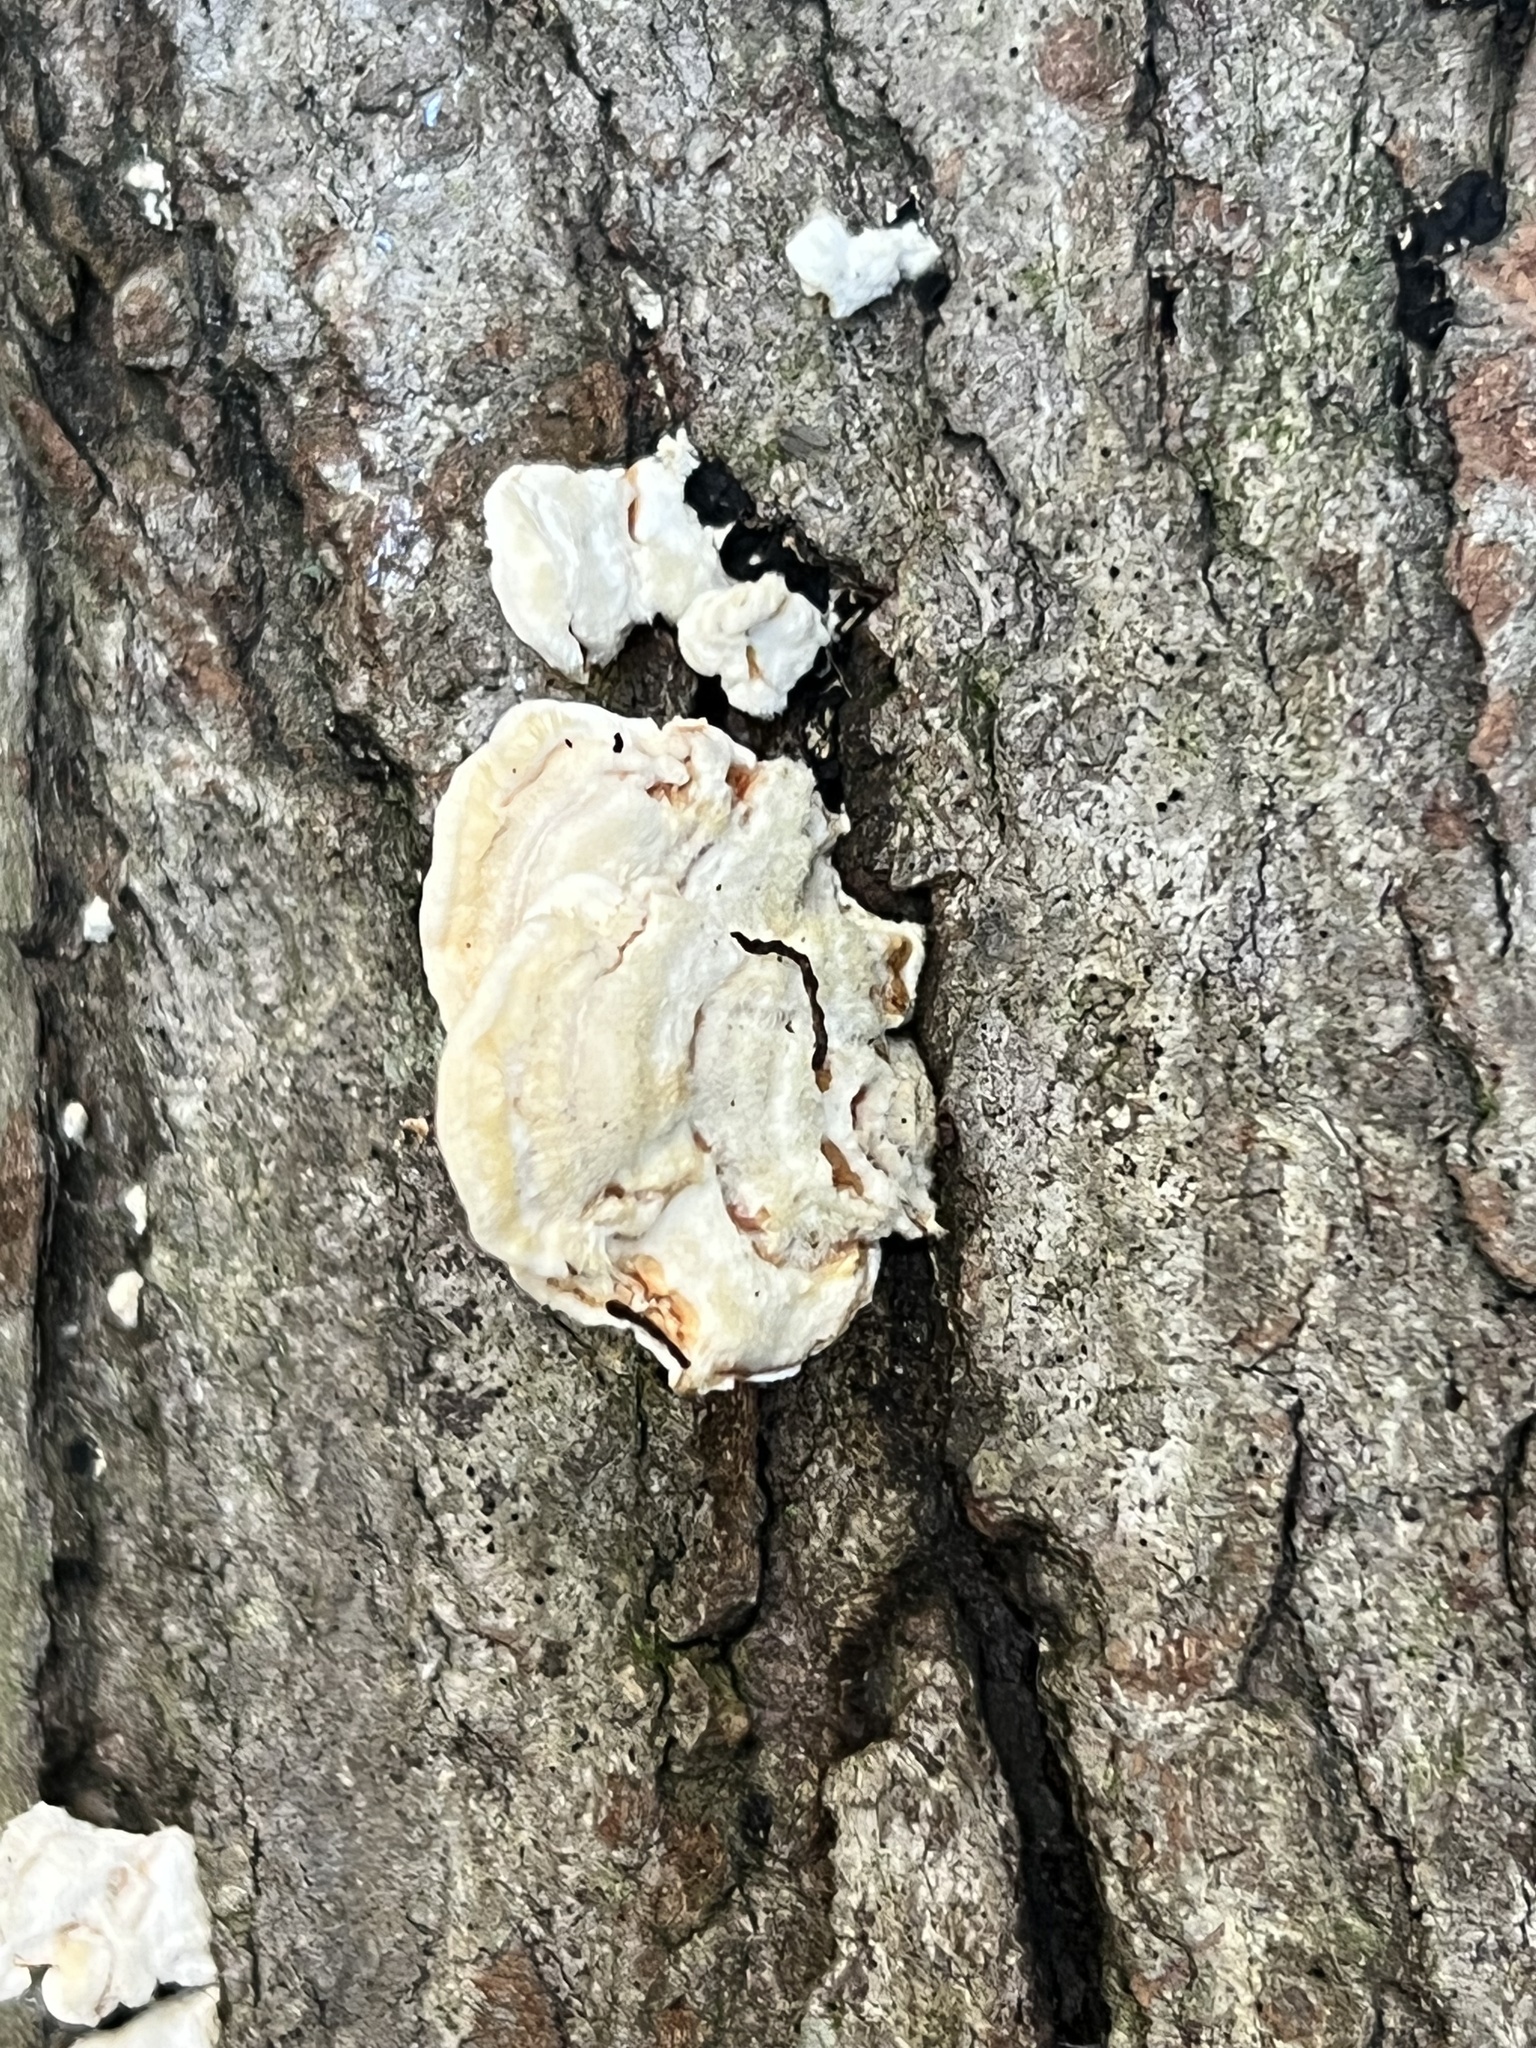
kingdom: Fungi
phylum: Basidiomycota
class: Agaricomycetes
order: Polyporales
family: Steccherinaceae
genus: Steccherinum
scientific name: Steccherinum ochraceum
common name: Ochre spreading tooth
